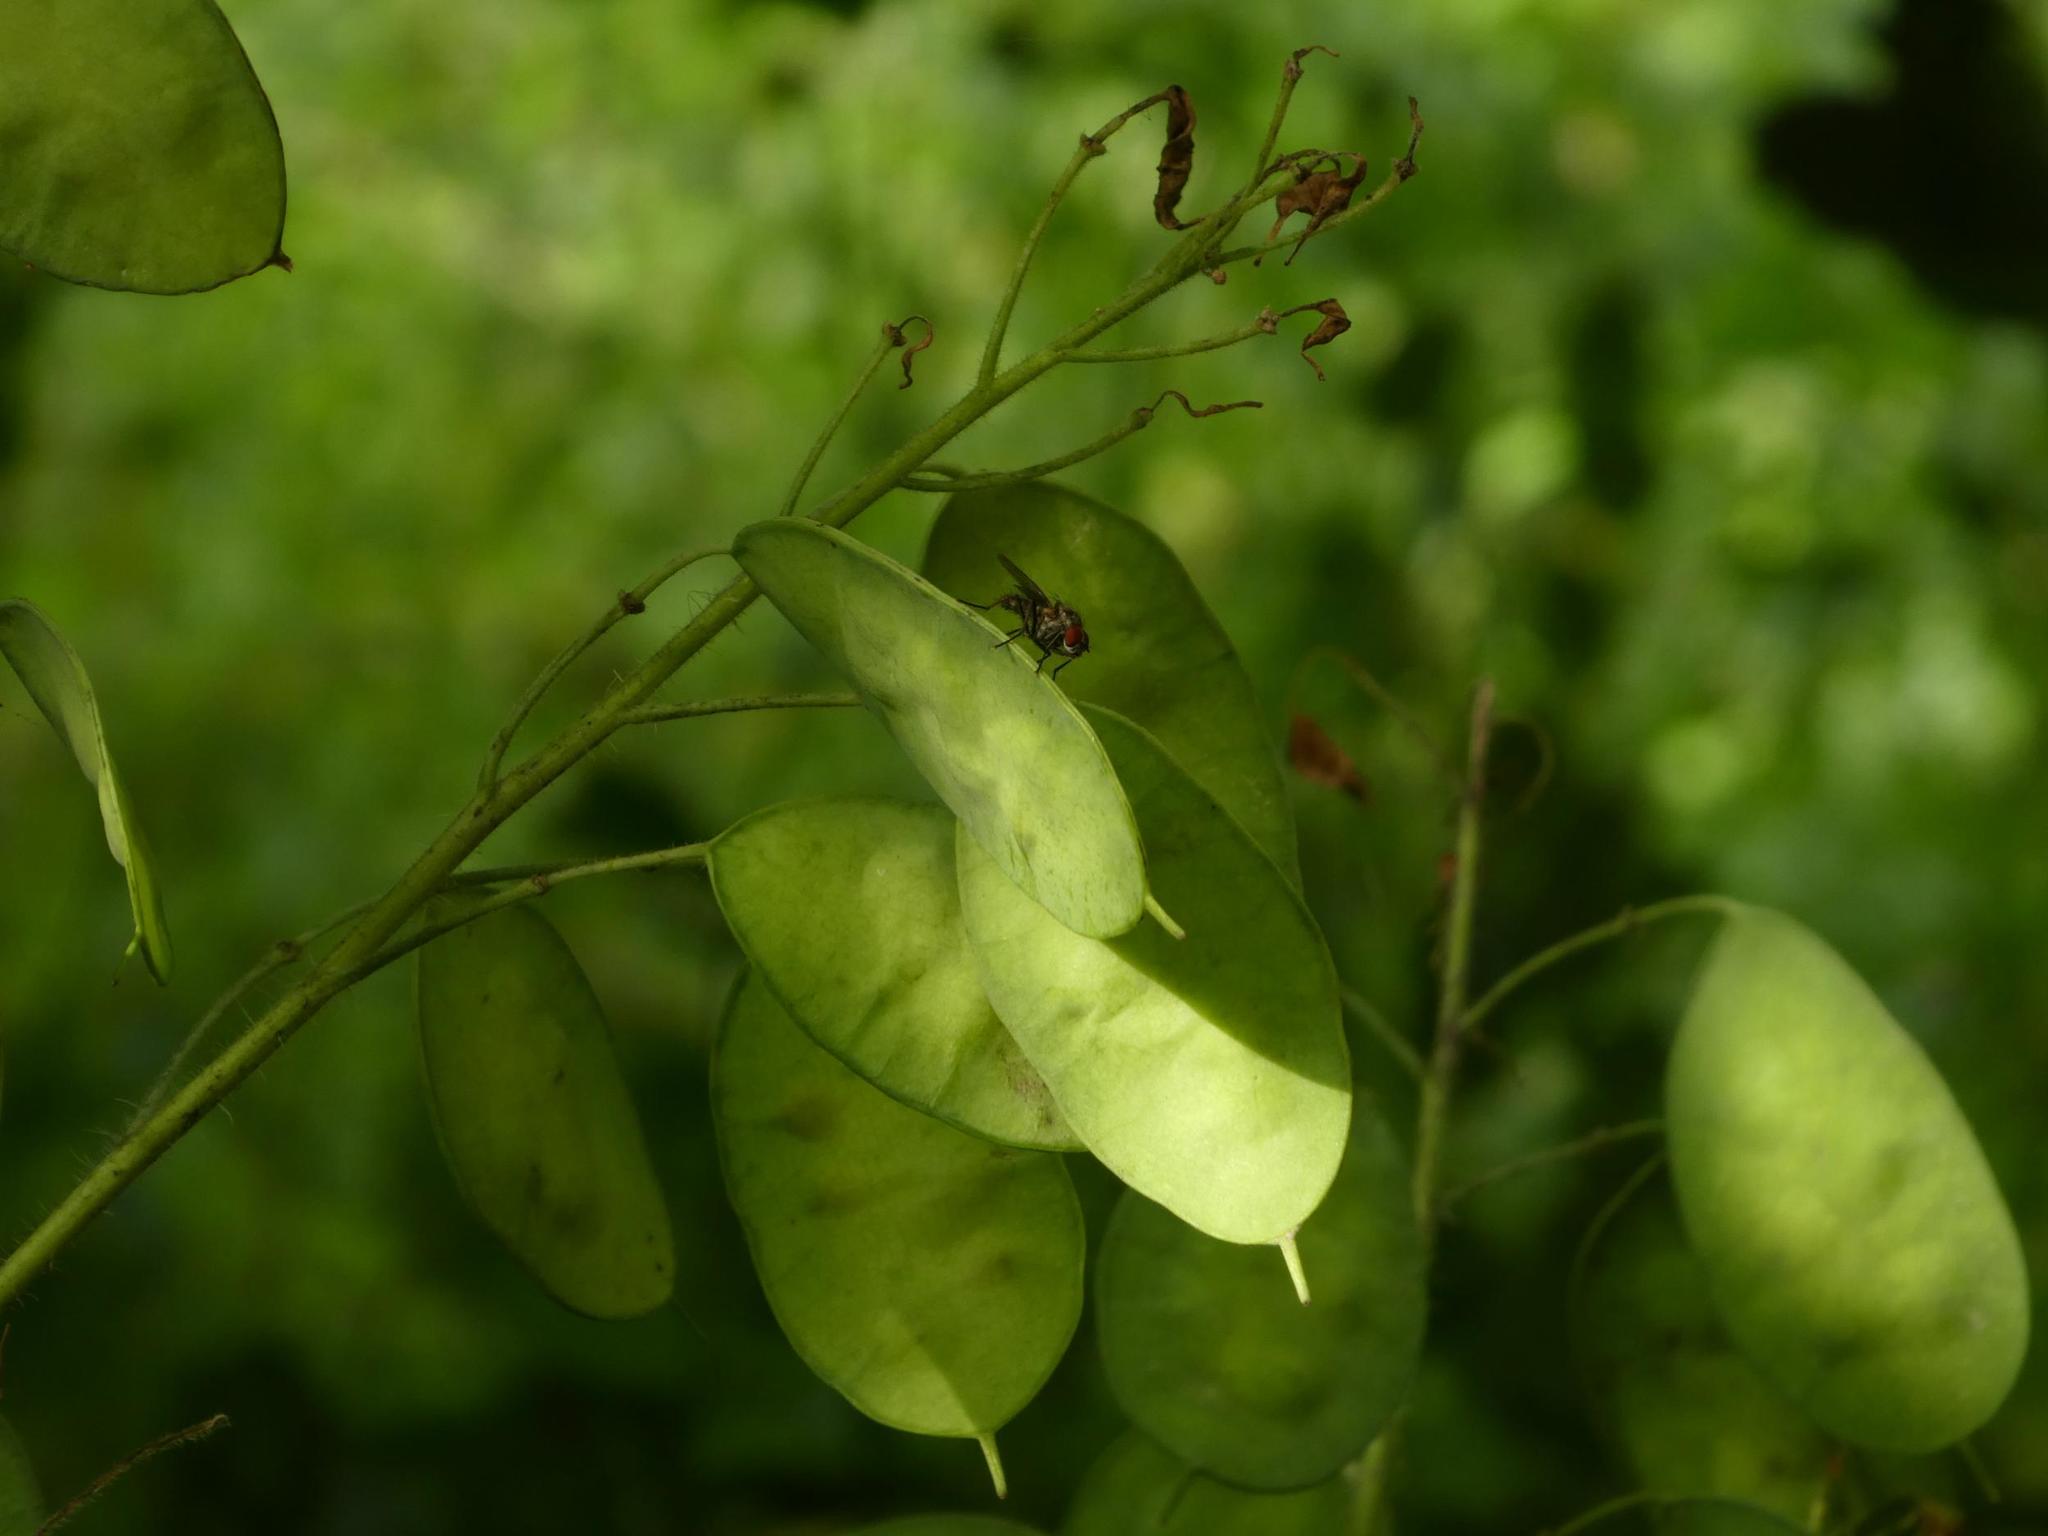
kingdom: Plantae
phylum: Tracheophyta
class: Magnoliopsida
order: Brassicales
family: Brassicaceae
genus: Lunaria
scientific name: Lunaria annua
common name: Honesty
